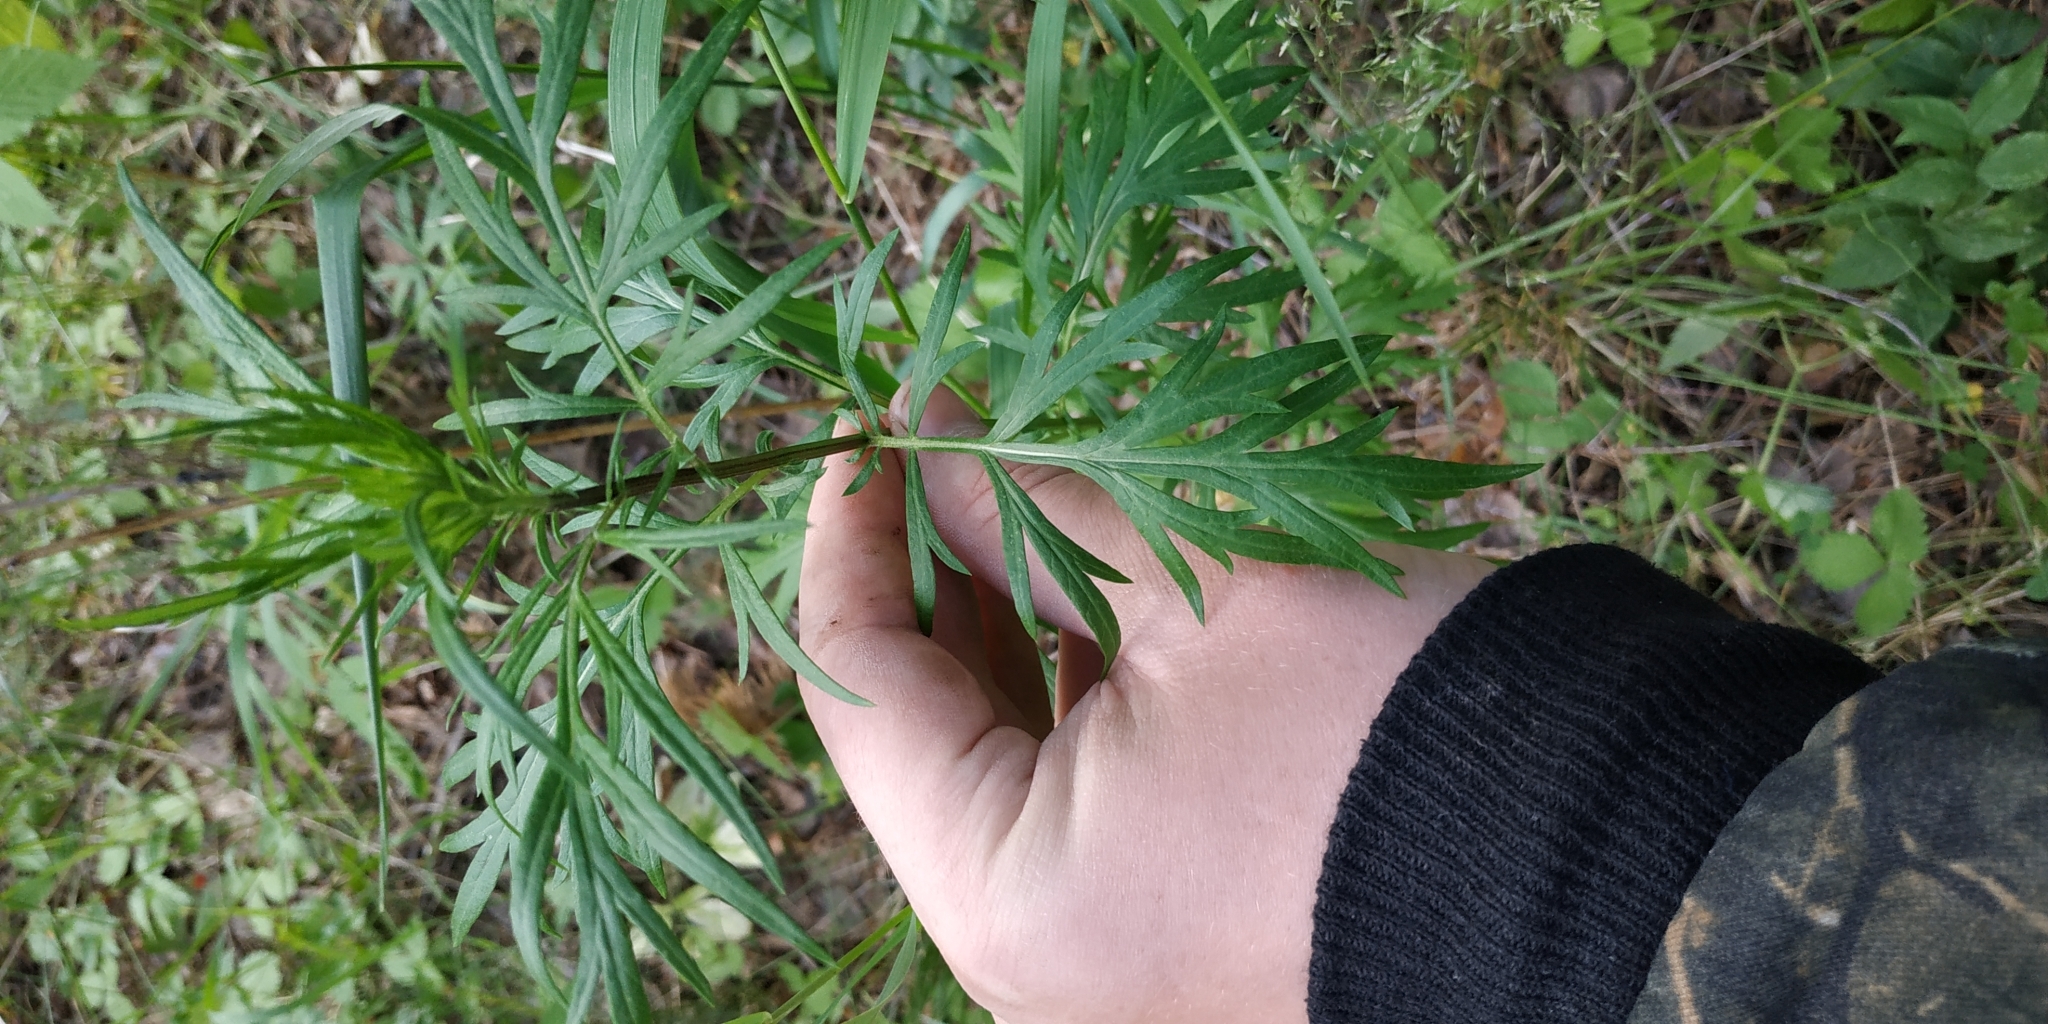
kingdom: Plantae
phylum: Tracheophyta
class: Magnoliopsida
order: Asterales
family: Asteraceae
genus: Artemisia
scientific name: Artemisia vulgaris
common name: Mugwort
